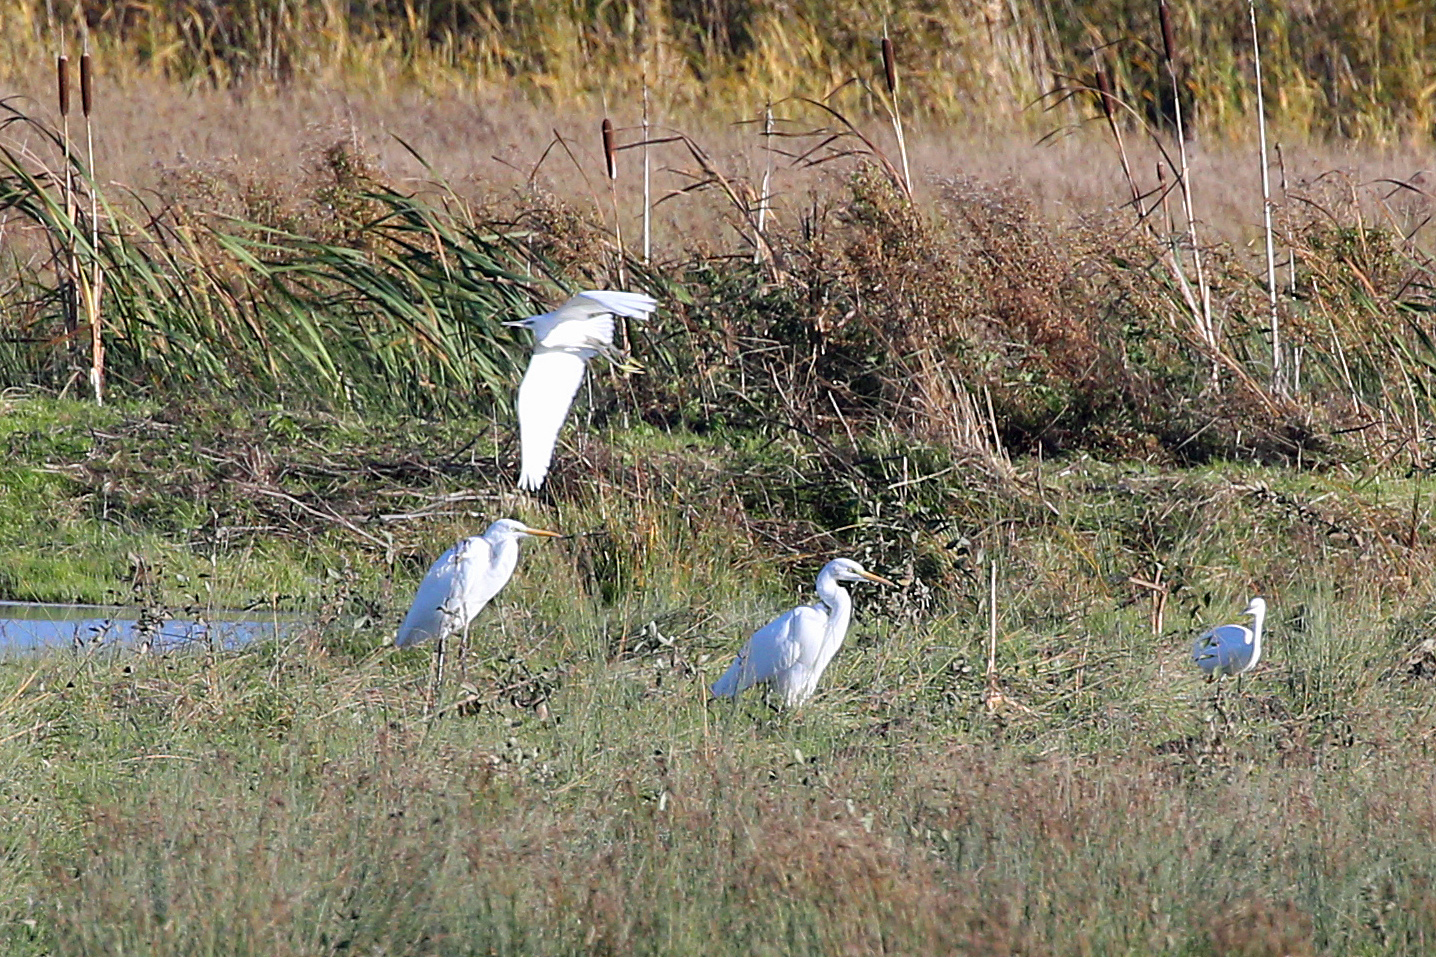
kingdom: Animalia
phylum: Chordata
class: Aves
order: Pelecaniformes
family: Ardeidae
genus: Ardea
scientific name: Ardea alba
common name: Great egret
